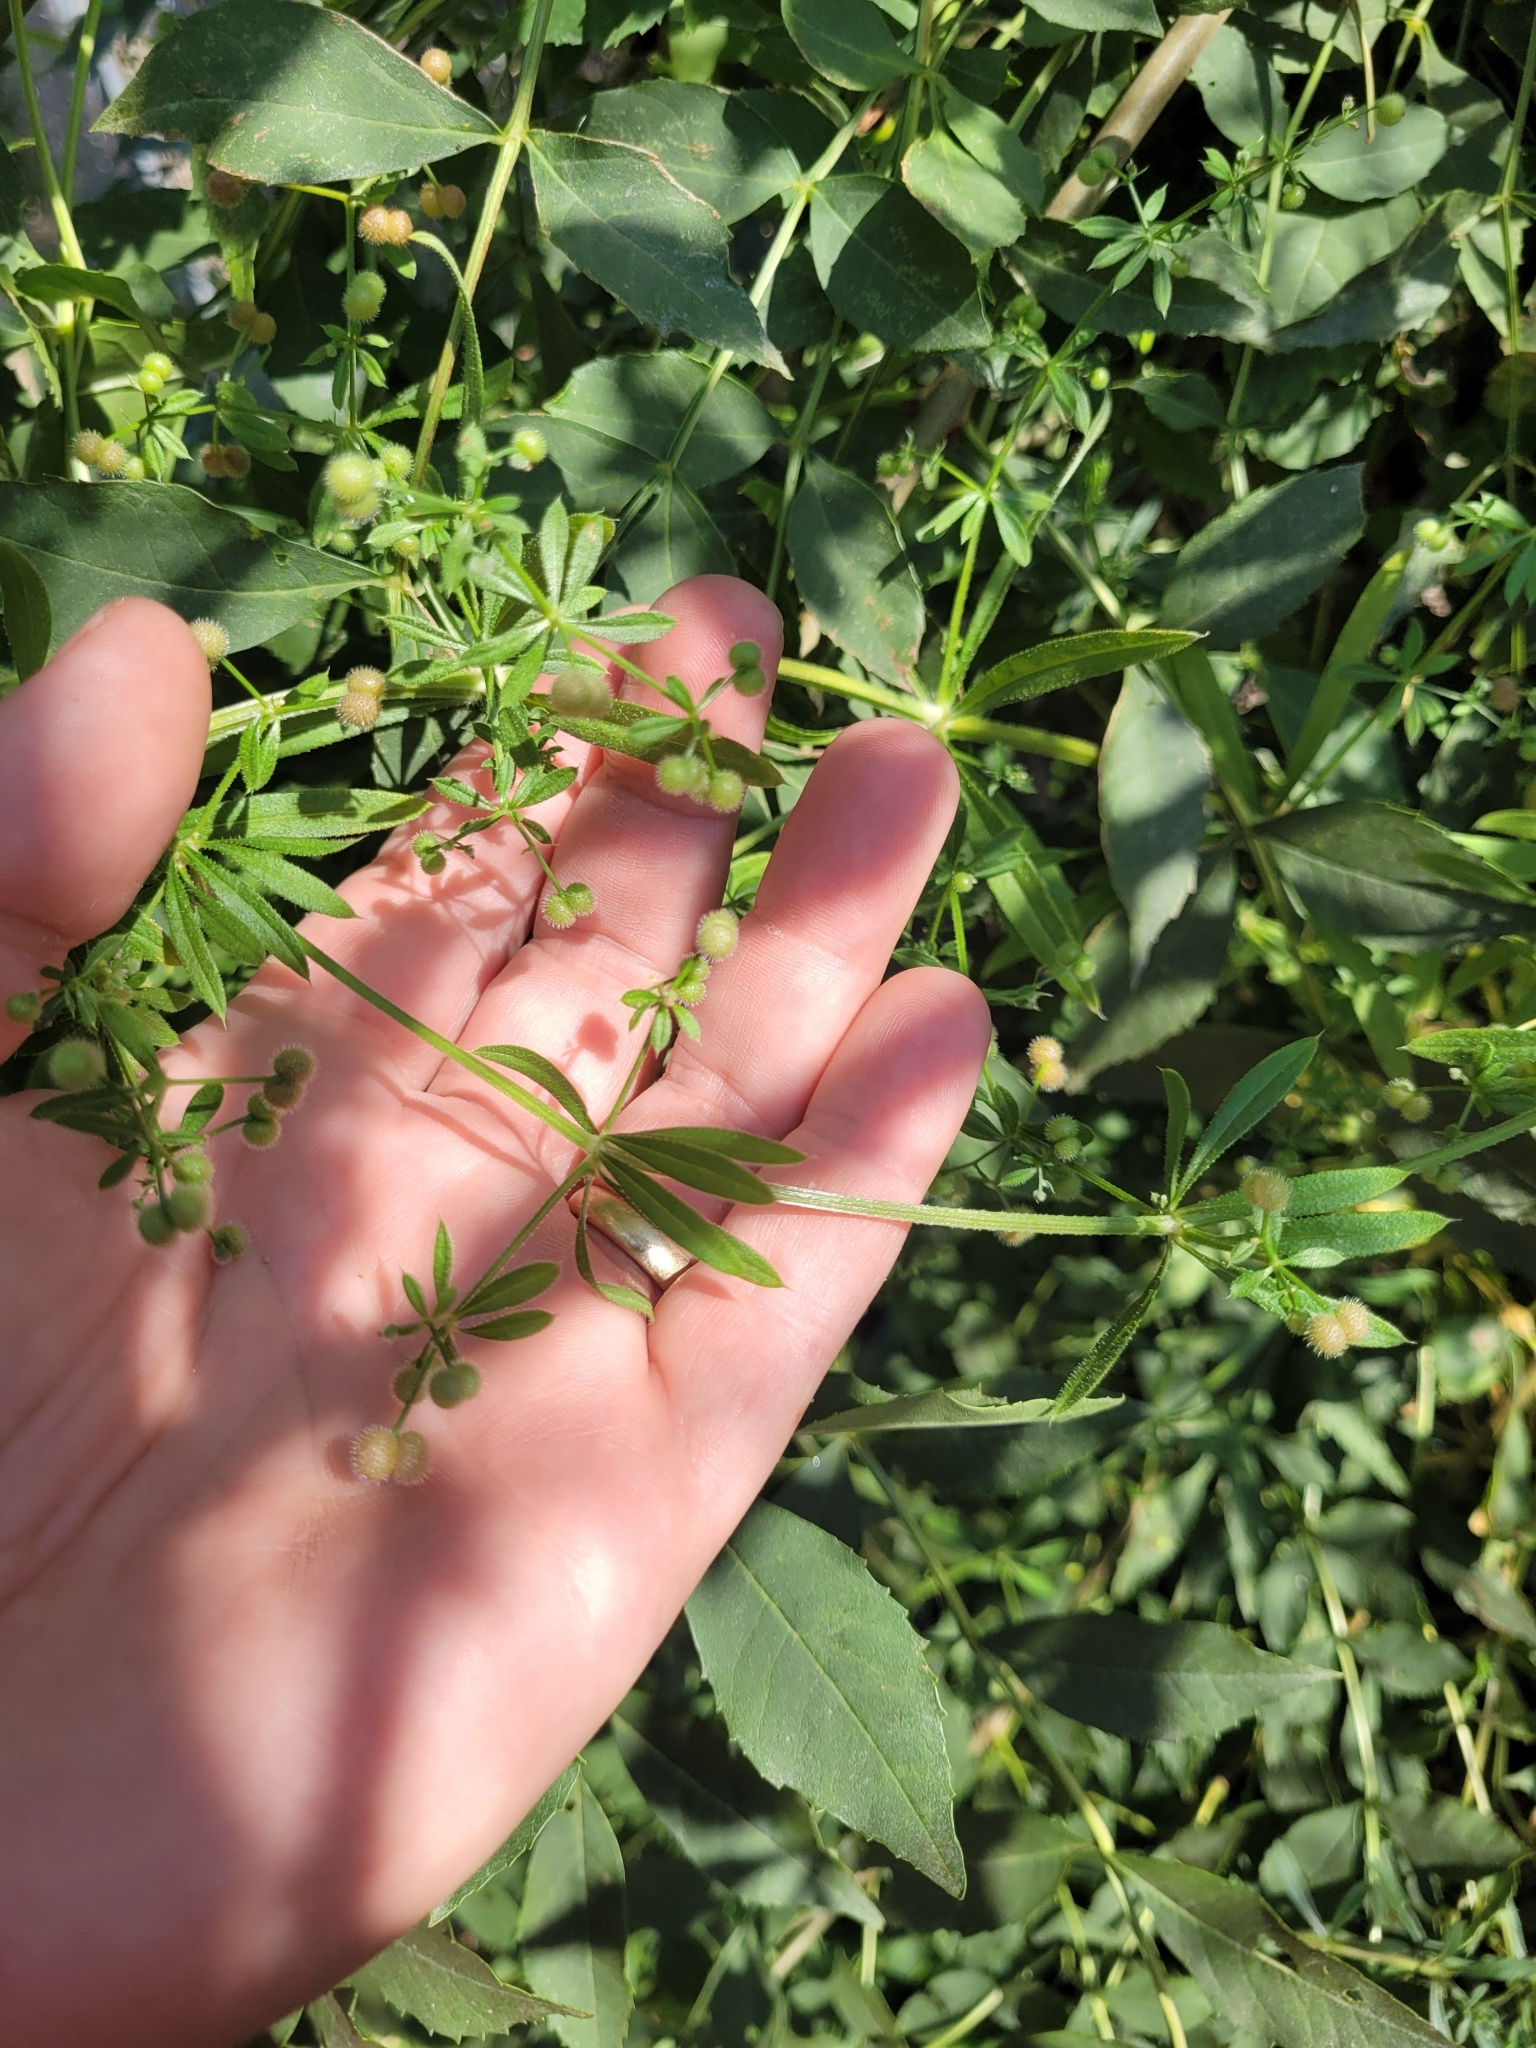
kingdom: Plantae
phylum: Tracheophyta
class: Magnoliopsida
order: Gentianales
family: Rubiaceae
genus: Galium
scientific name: Galium aparine
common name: Cleavers
